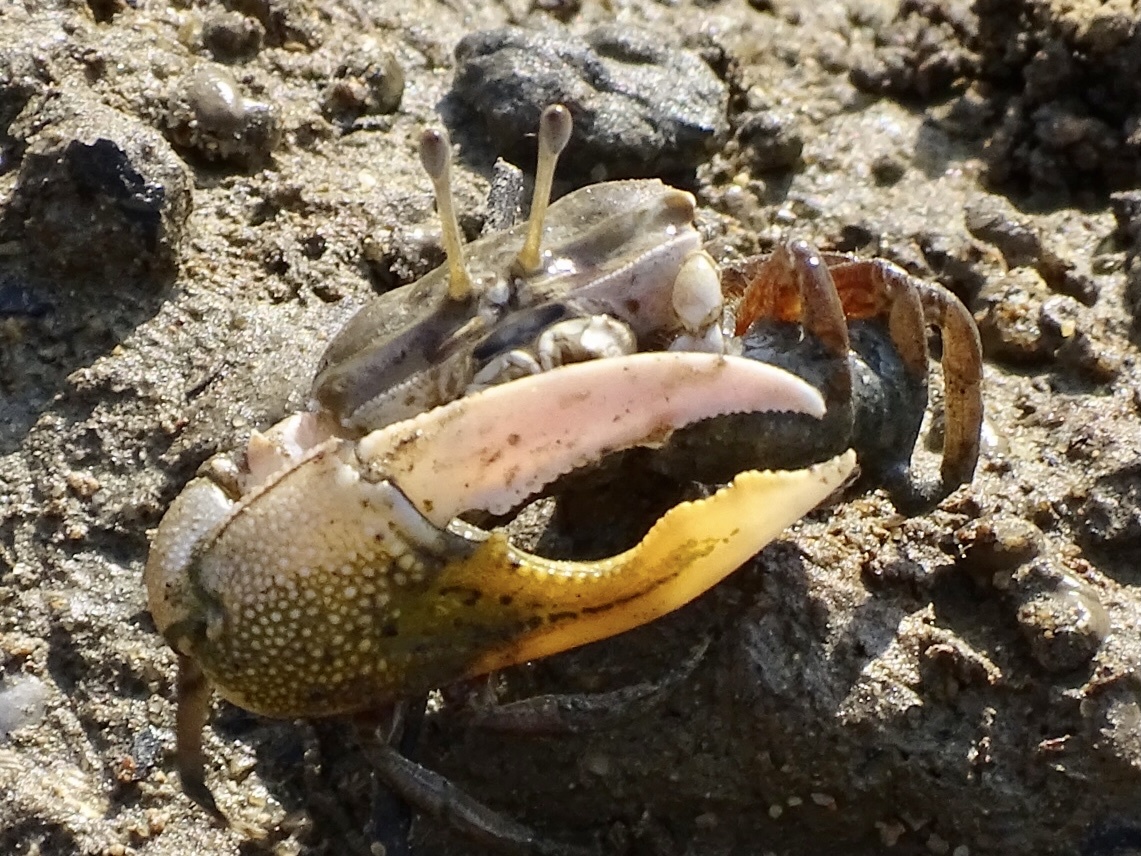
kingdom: Animalia
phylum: Arthropoda
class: Malacostraca
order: Decapoda
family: Ocypodidae
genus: Gelasimus
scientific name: Gelasimus borealis
